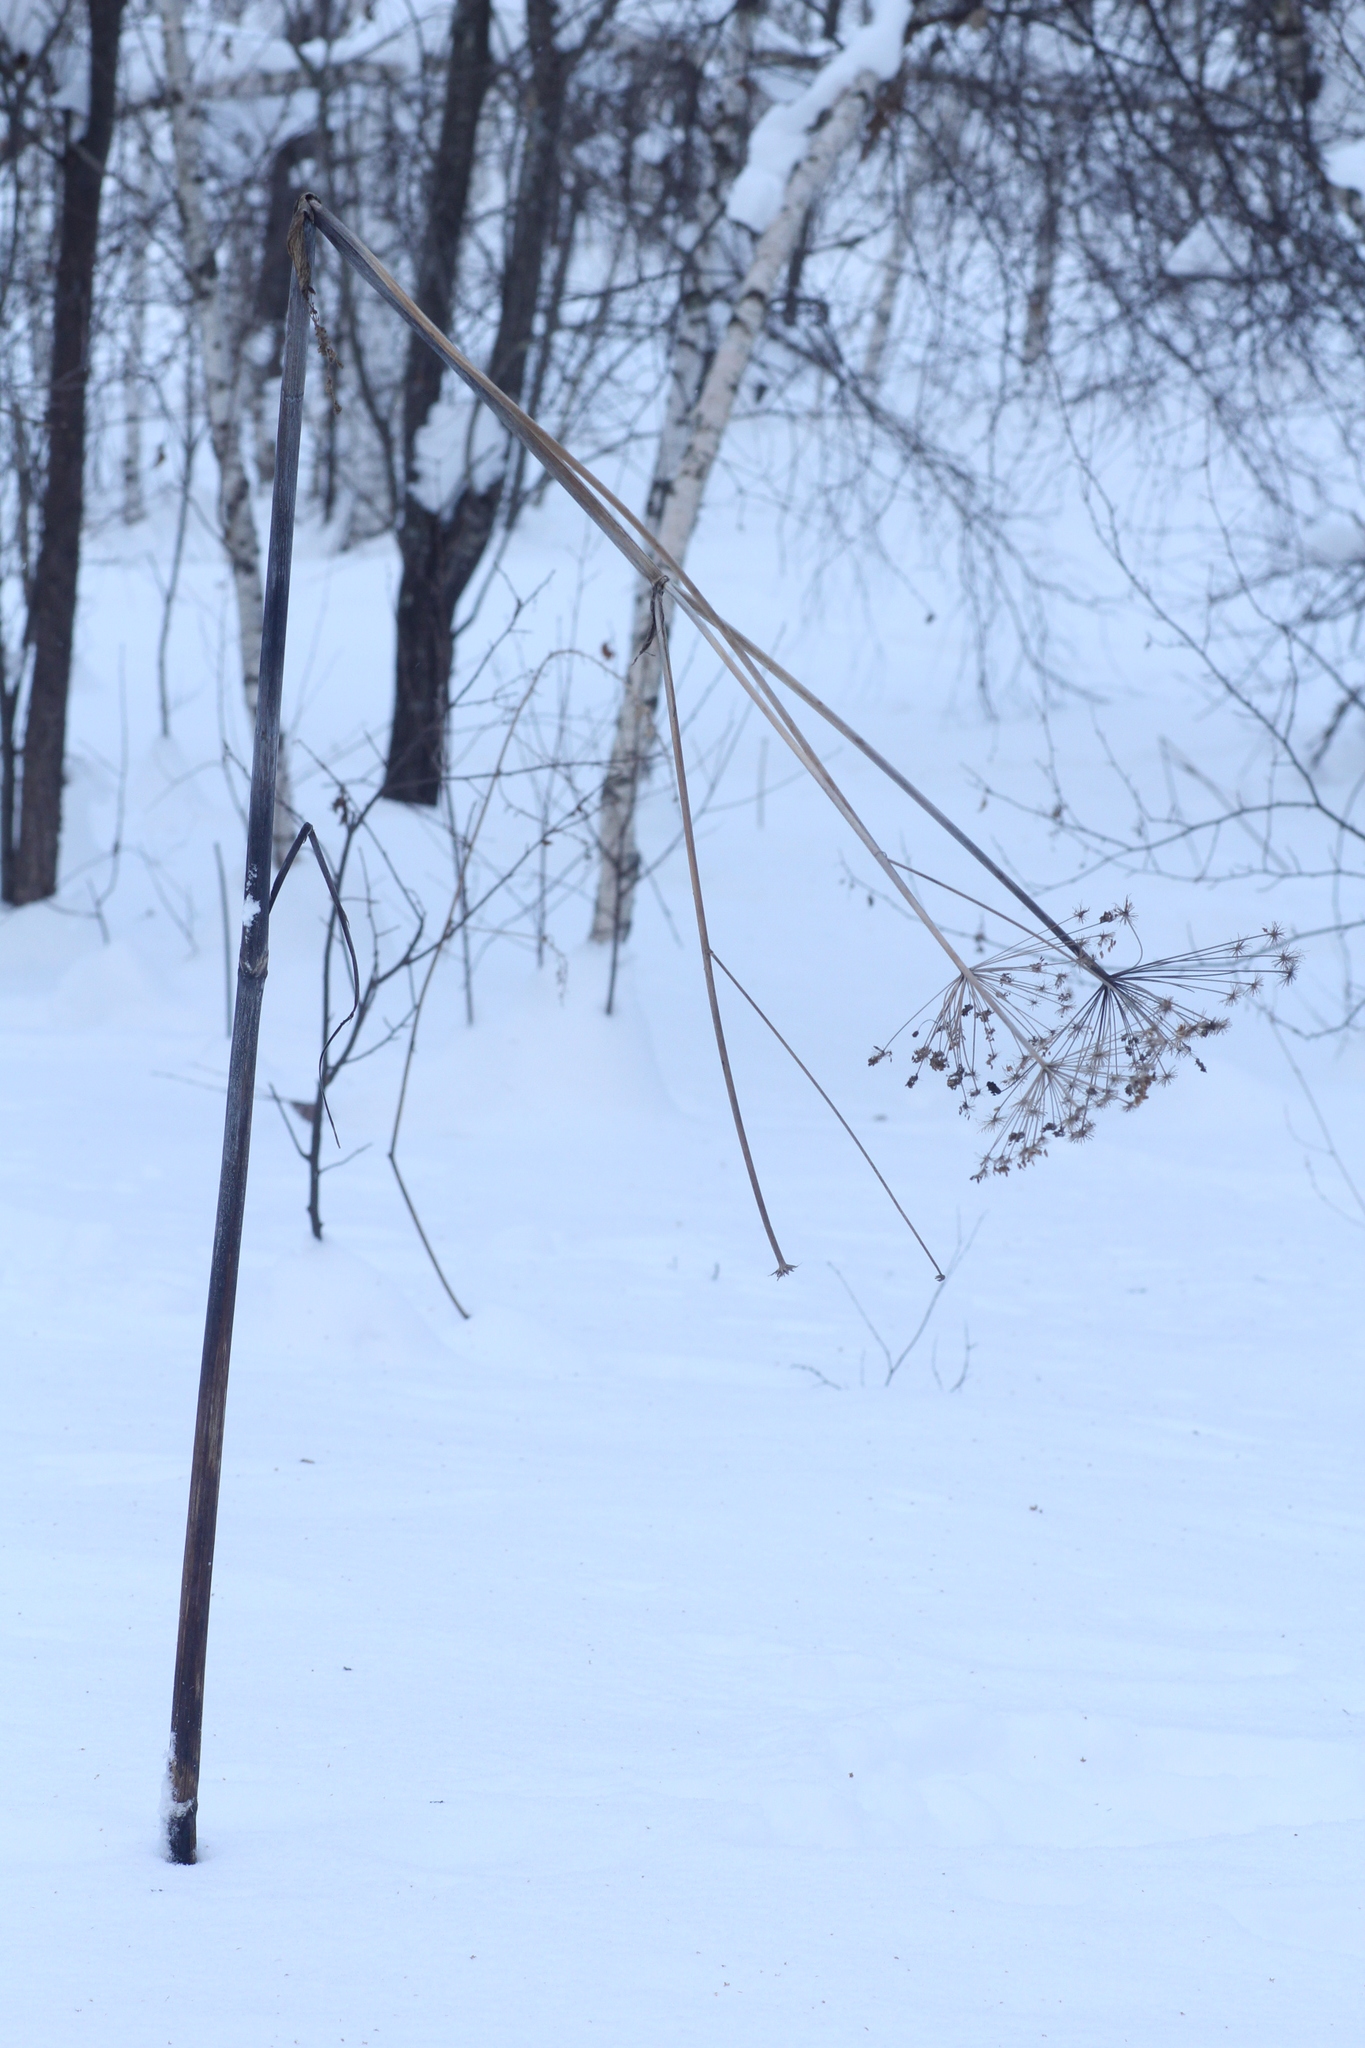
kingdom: Plantae
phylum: Tracheophyta
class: Magnoliopsida
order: Apiales
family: Apiaceae
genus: Angelica
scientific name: Angelica sylvestris
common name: Wild angelica
